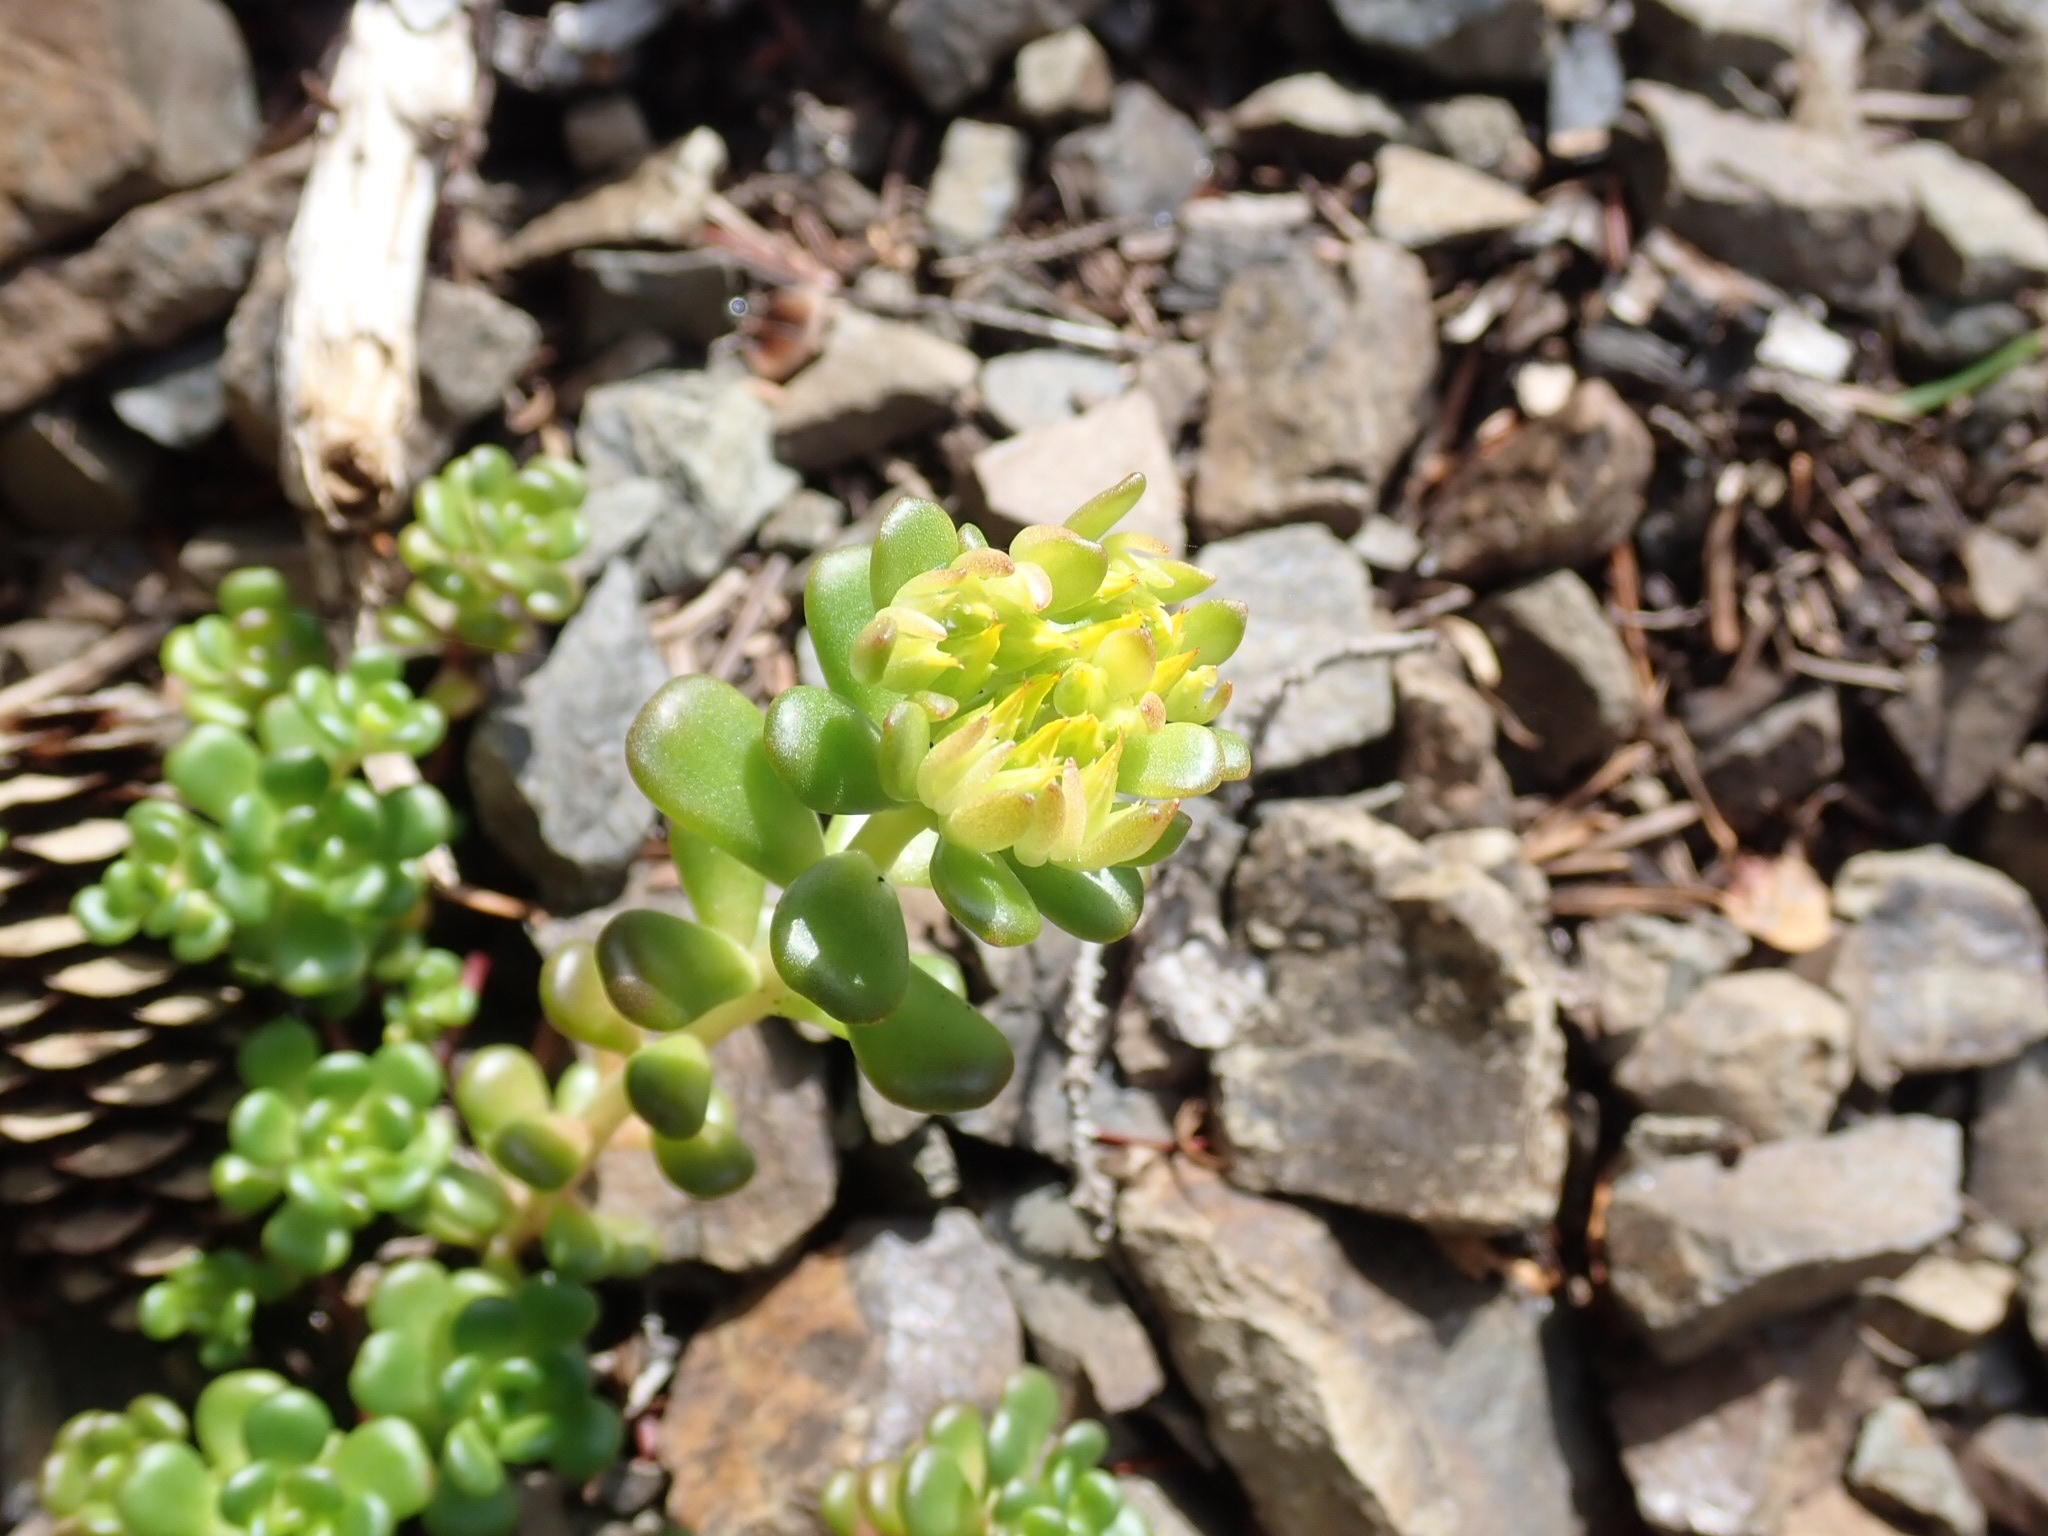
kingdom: Plantae
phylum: Tracheophyta
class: Magnoliopsida
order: Saxifragales
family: Crassulaceae
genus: Sedum
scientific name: Sedum oreganum
